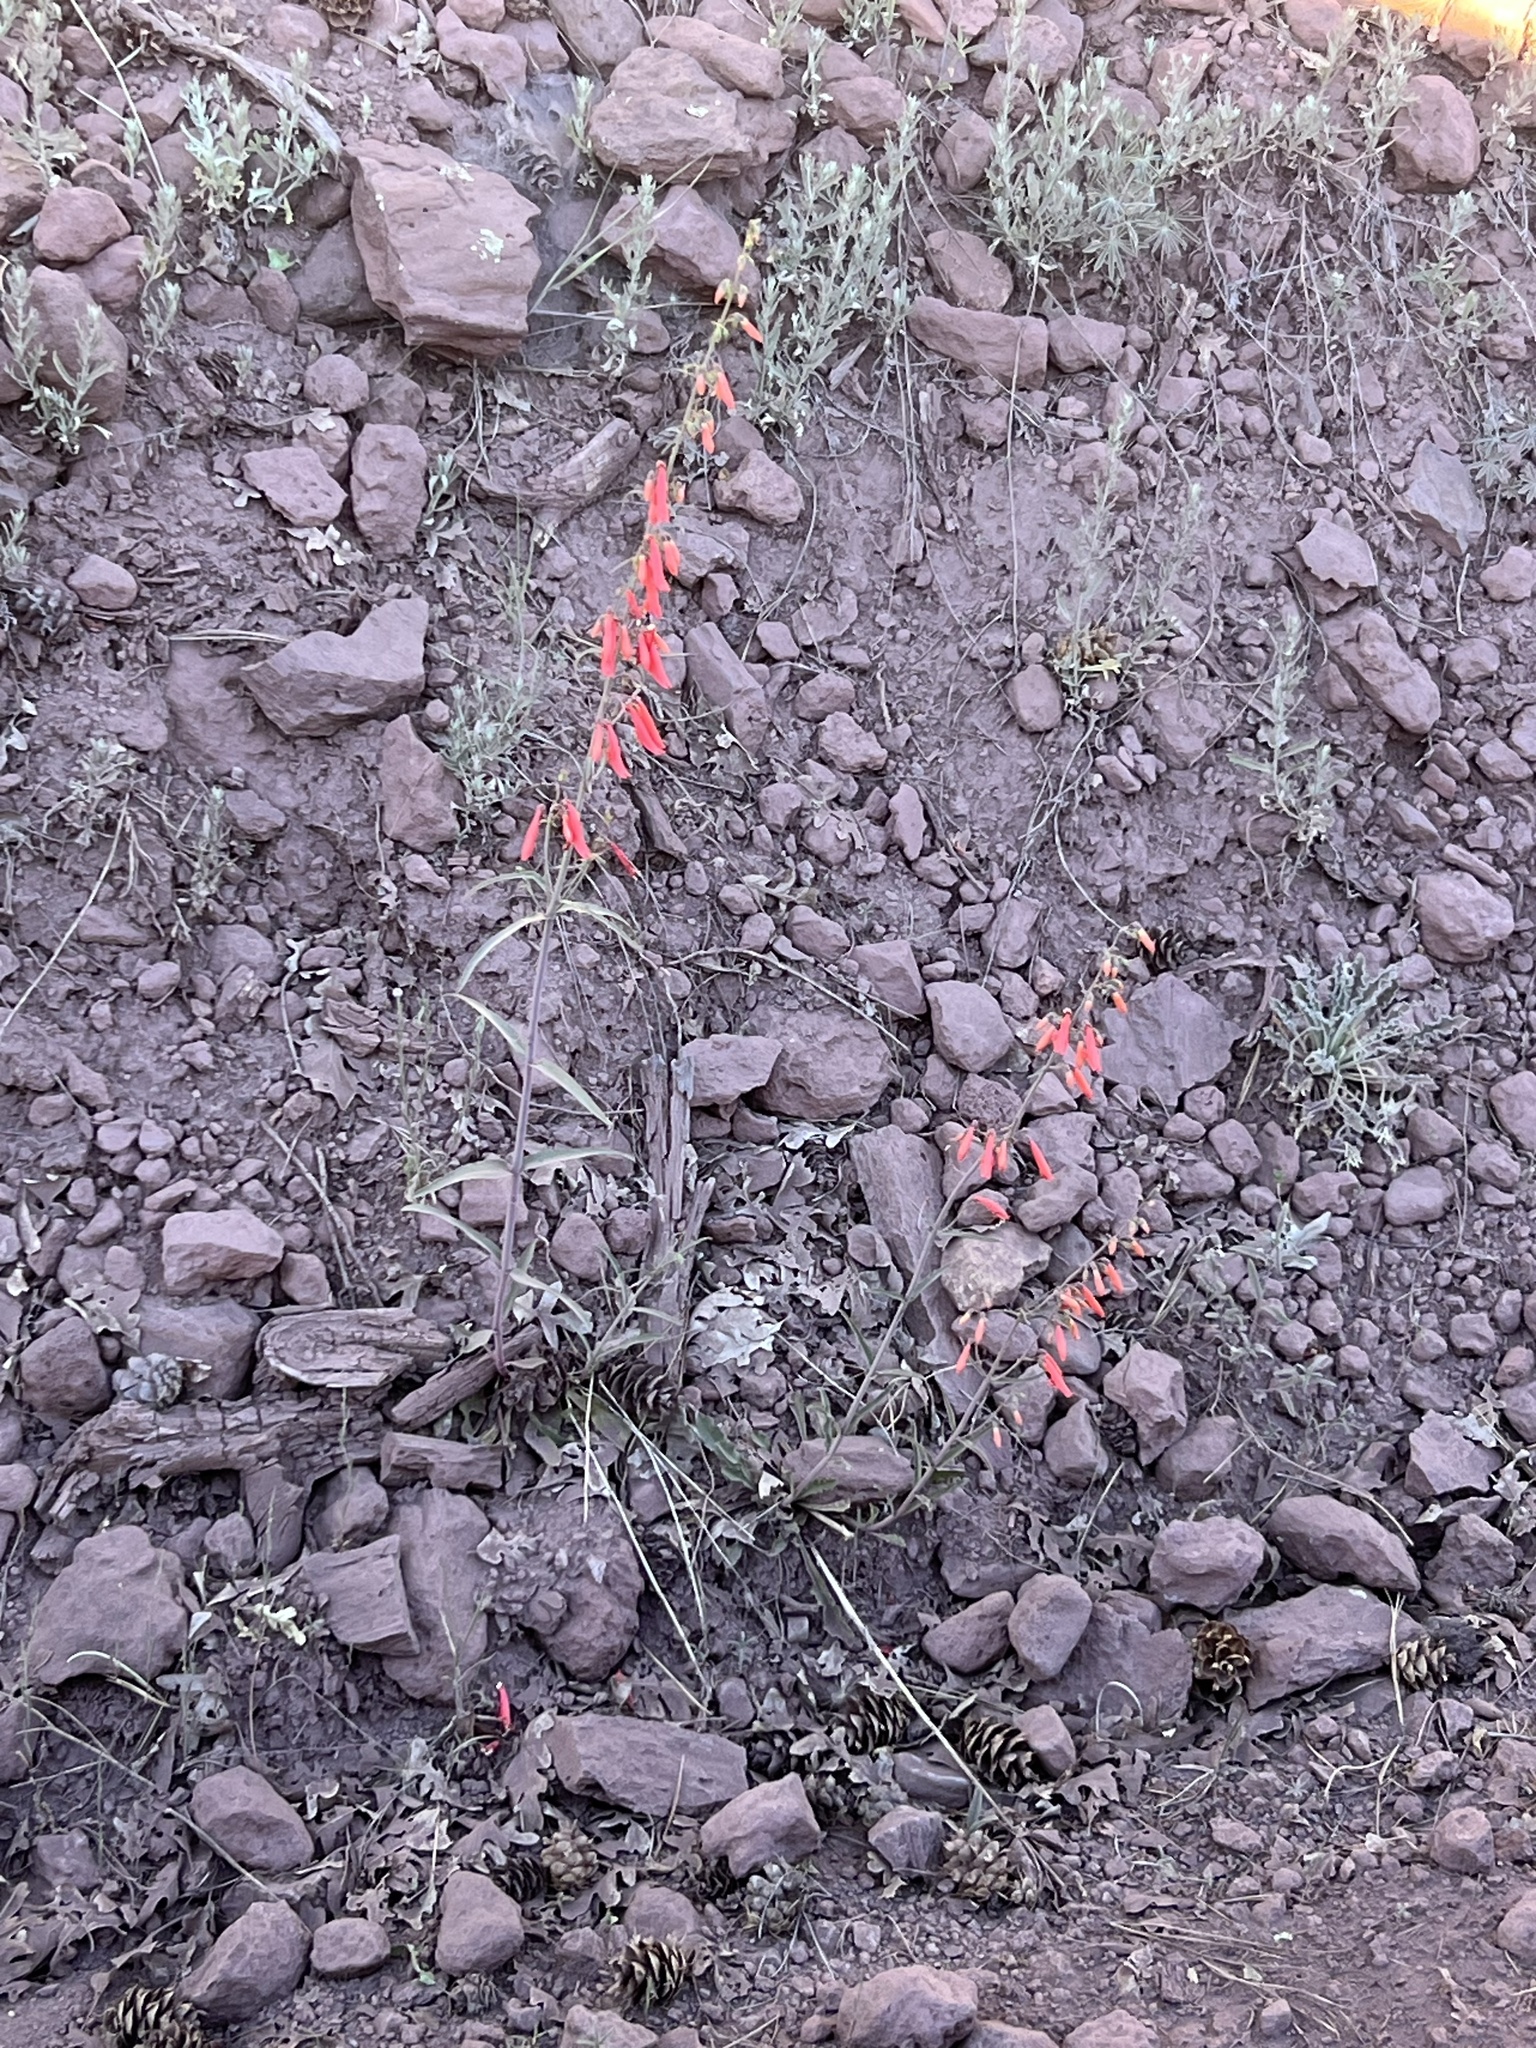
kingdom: Plantae
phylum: Tracheophyta
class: Magnoliopsida
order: Lamiales
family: Plantaginaceae
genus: Penstemon
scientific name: Penstemon barbatus
